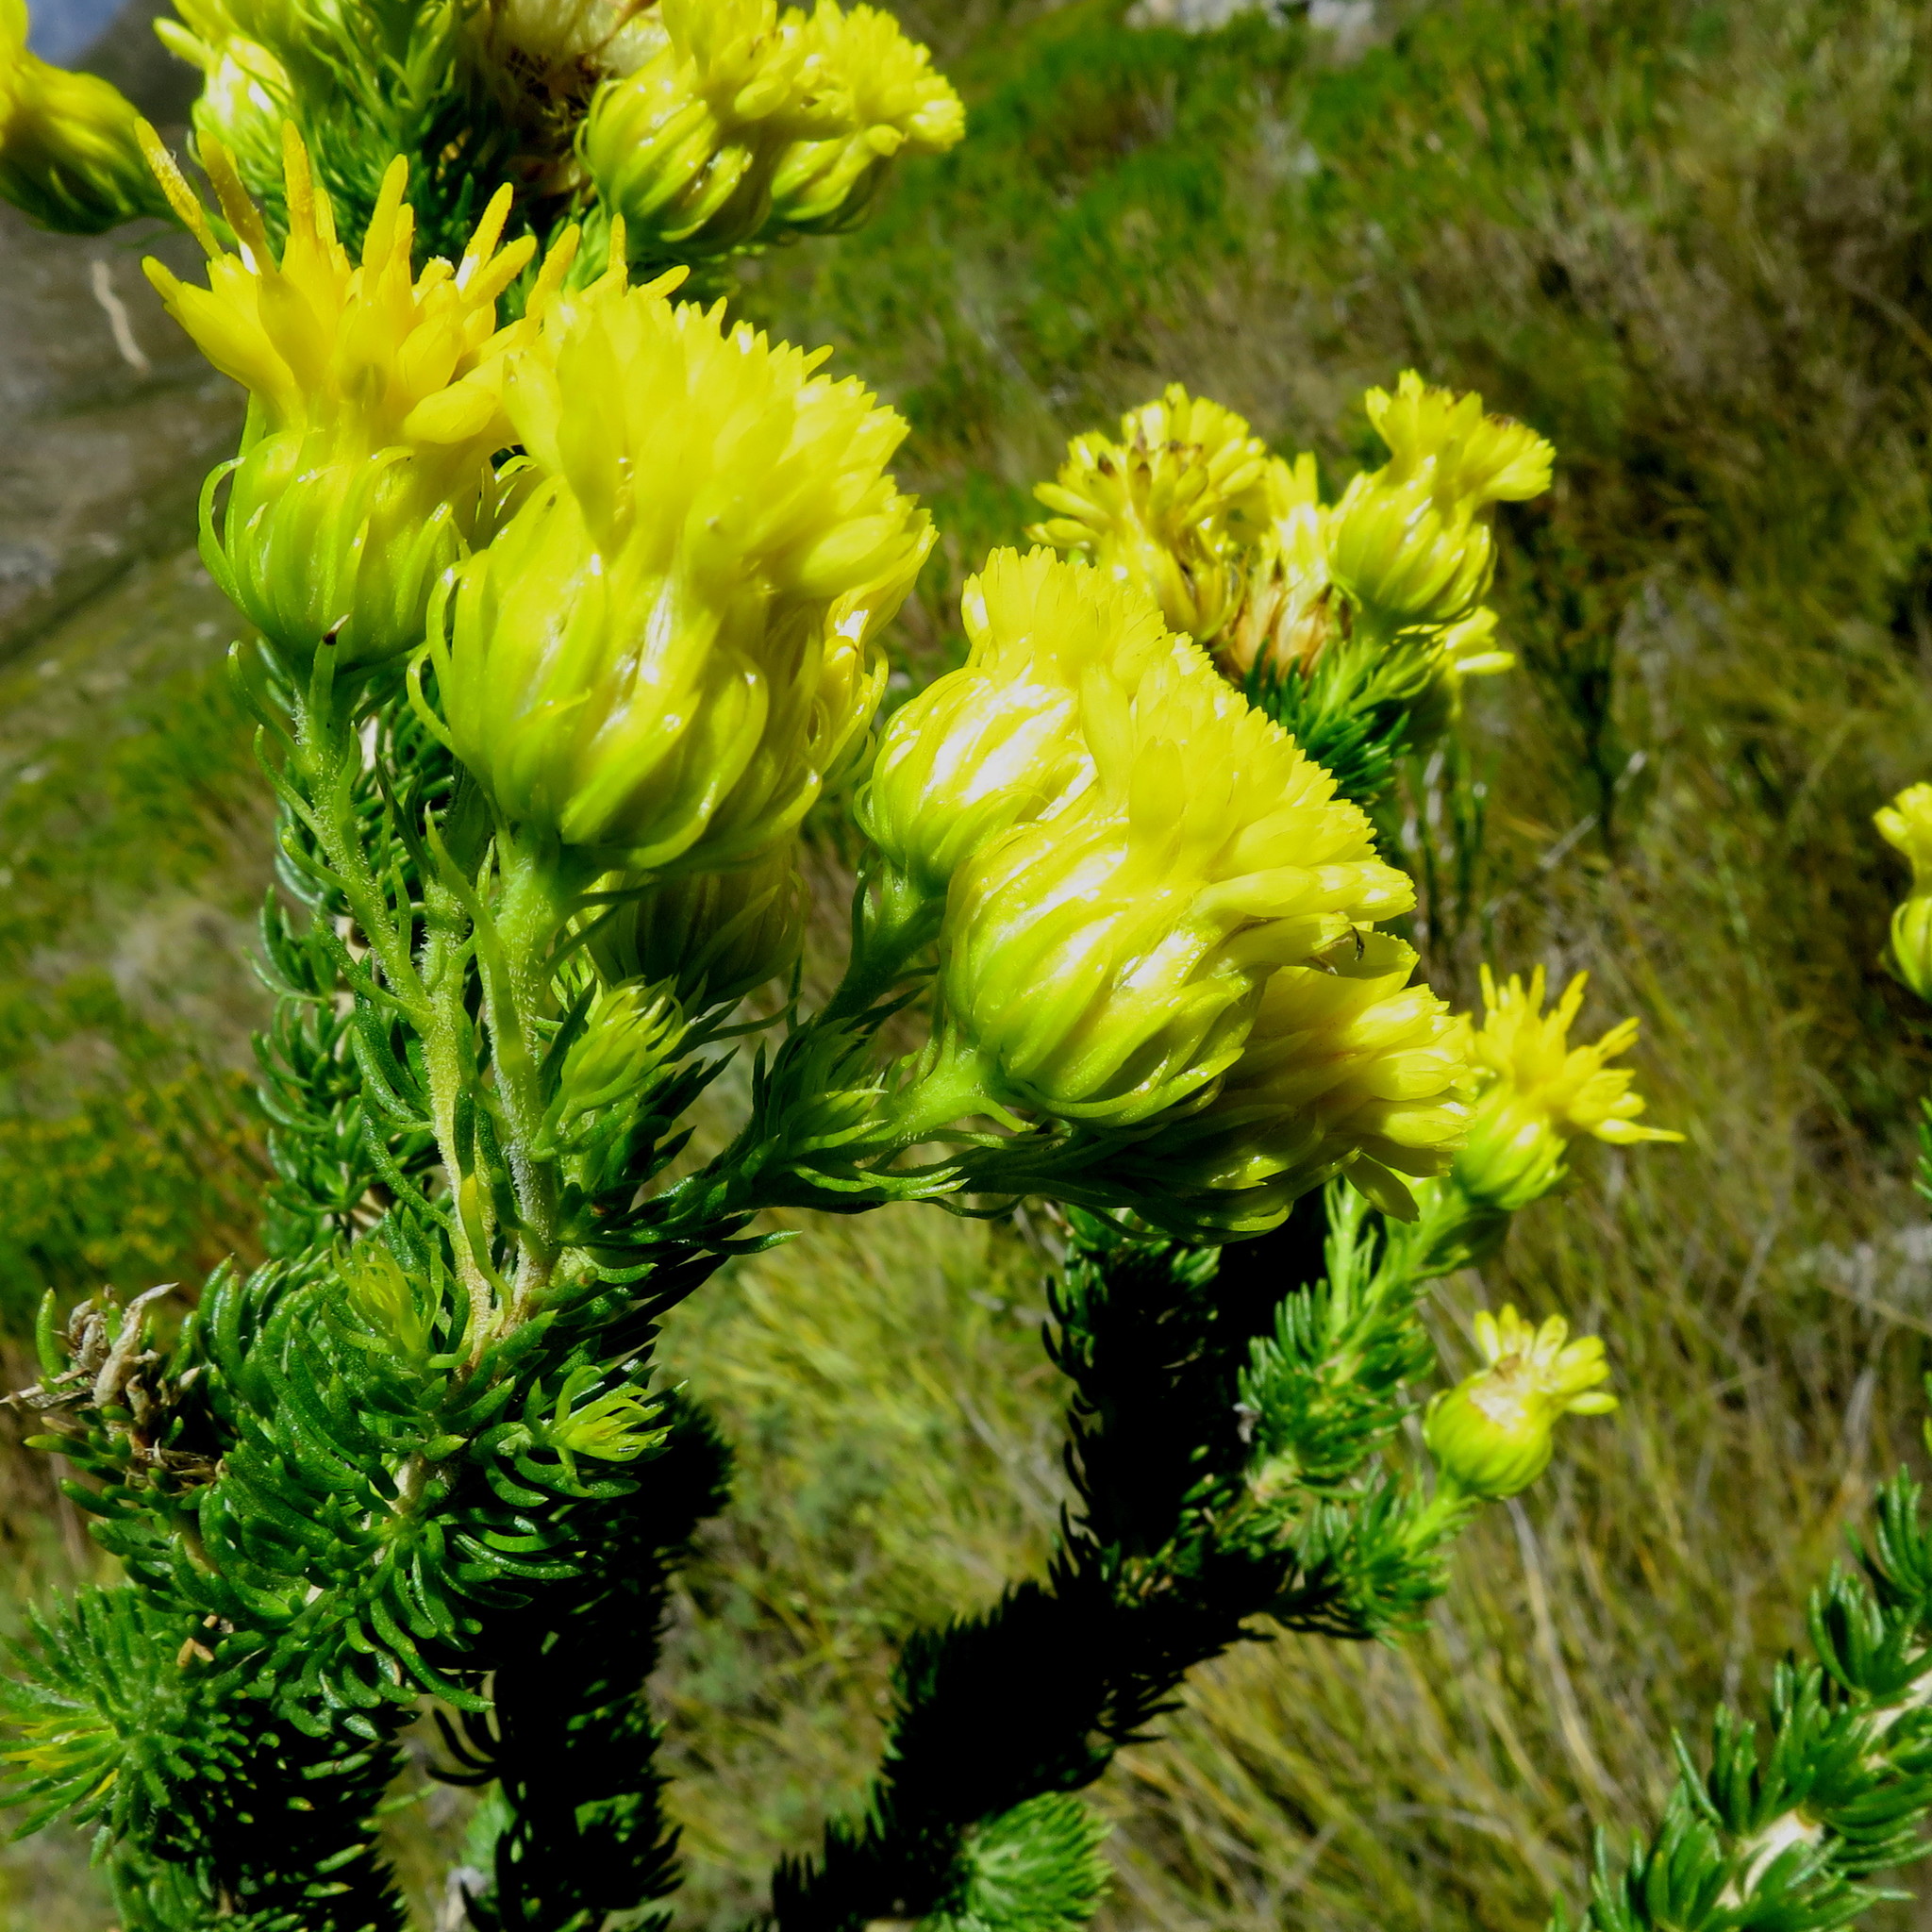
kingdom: Plantae
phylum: Tracheophyta
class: Magnoliopsida
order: Asterales
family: Asteraceae
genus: Pteronia
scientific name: Pteronia camphorata
